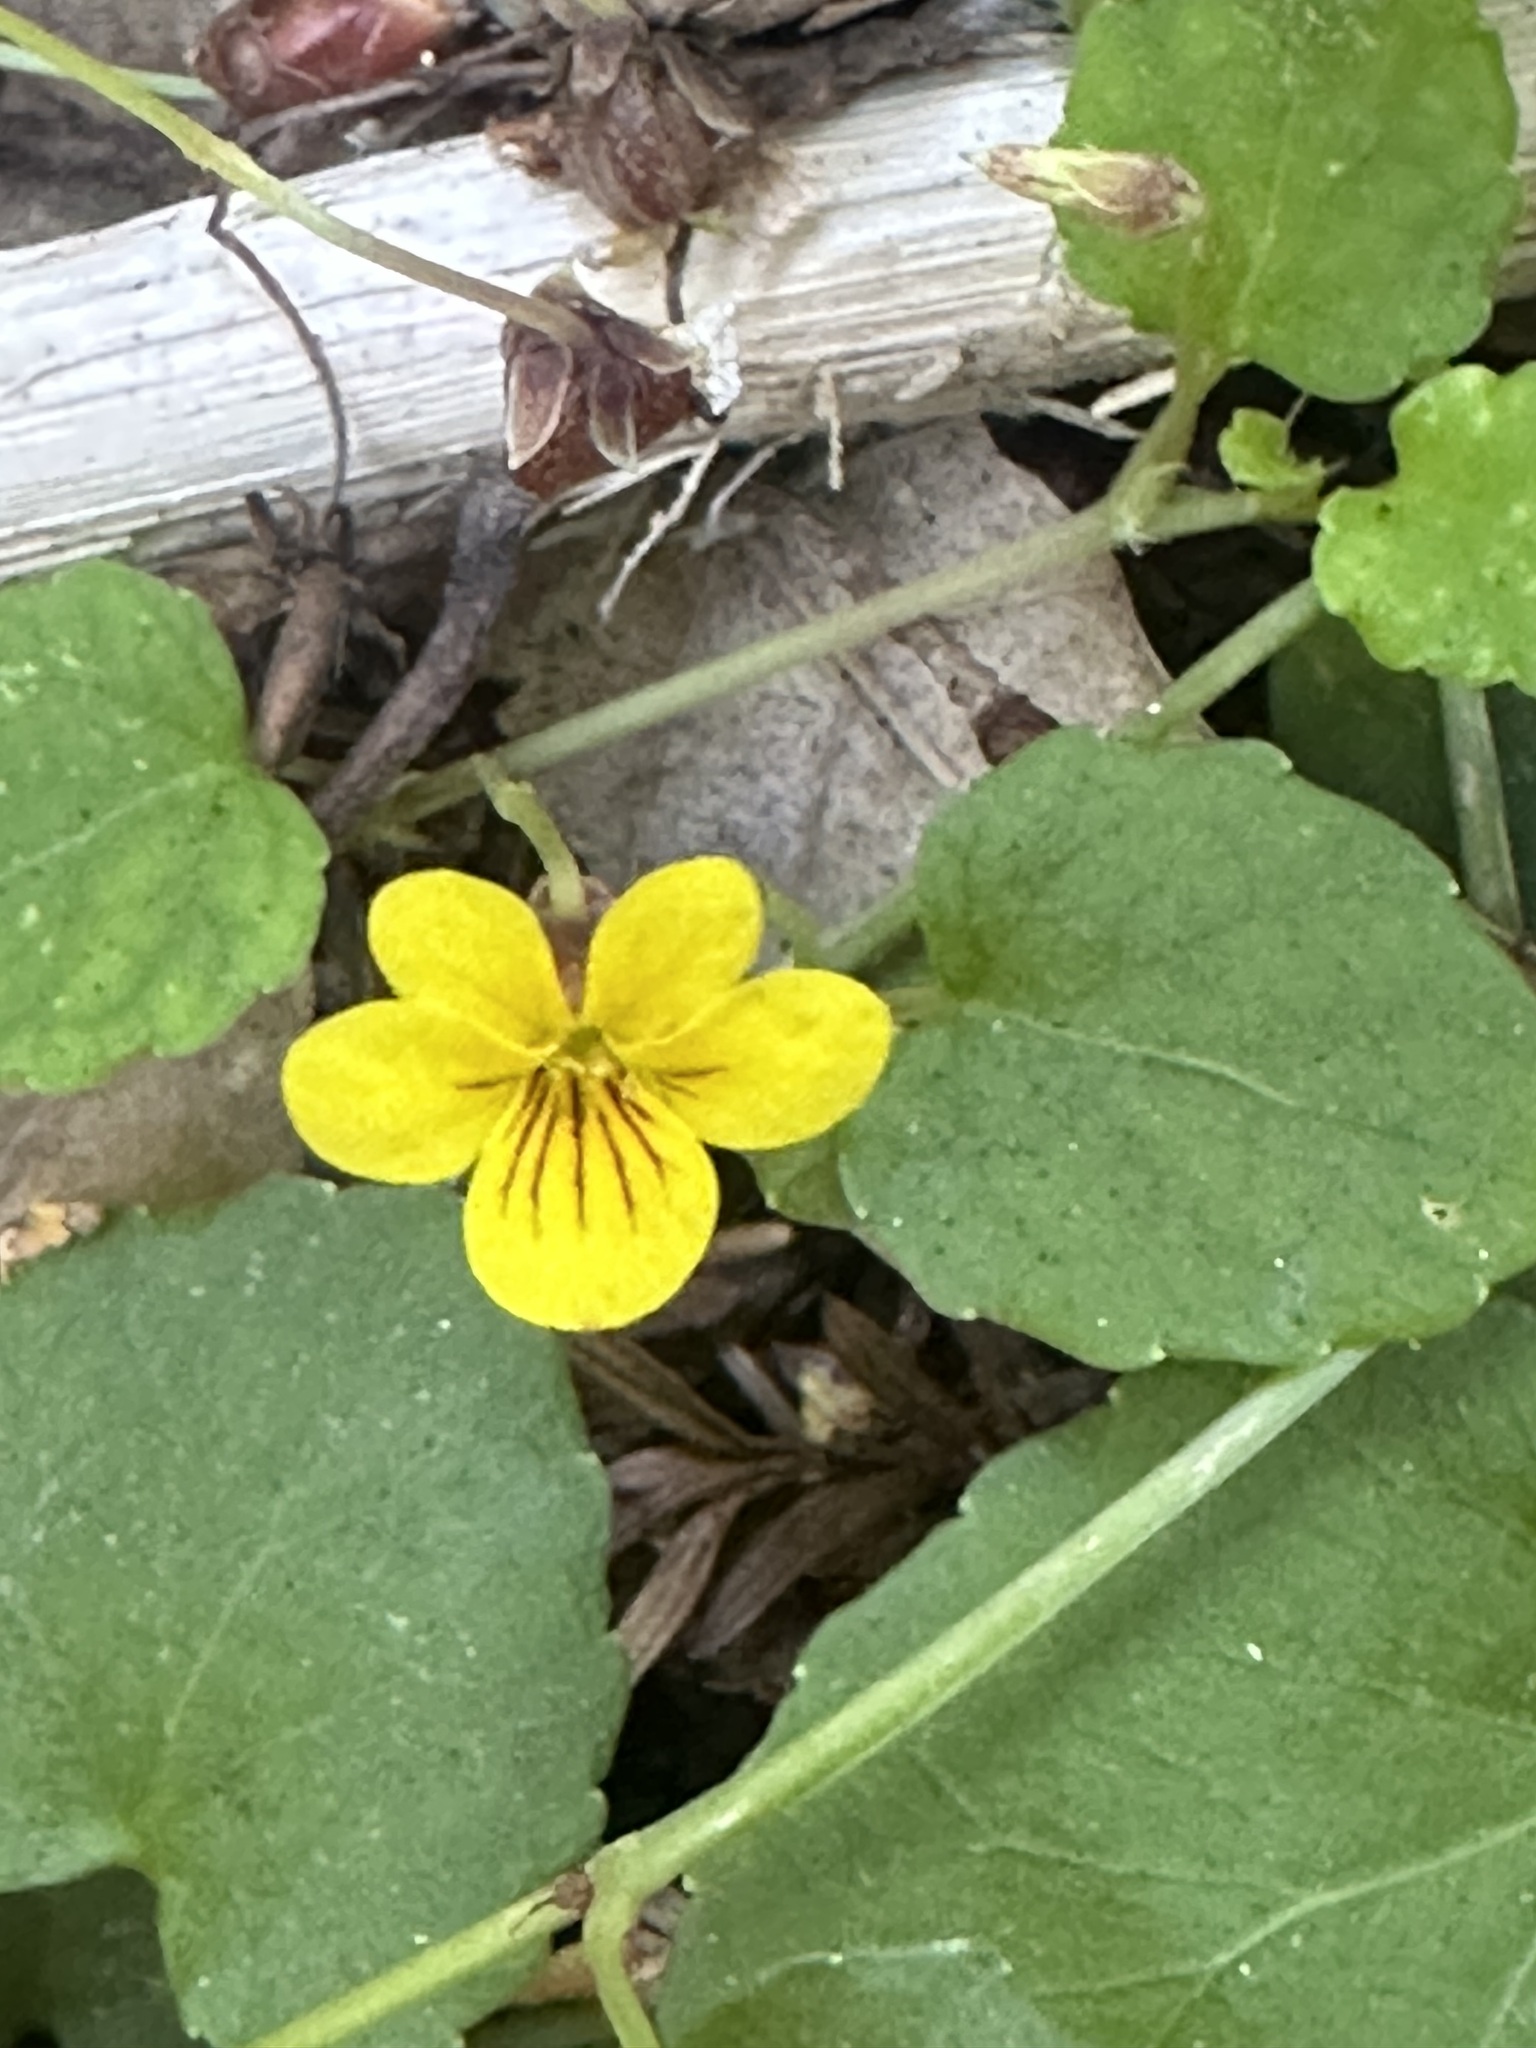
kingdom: Plantae
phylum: Tracheophyta
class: Magnoliopsida
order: Malpighiales
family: Violaceae
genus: Viola
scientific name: Viola sempervirens
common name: Evergreen violet
